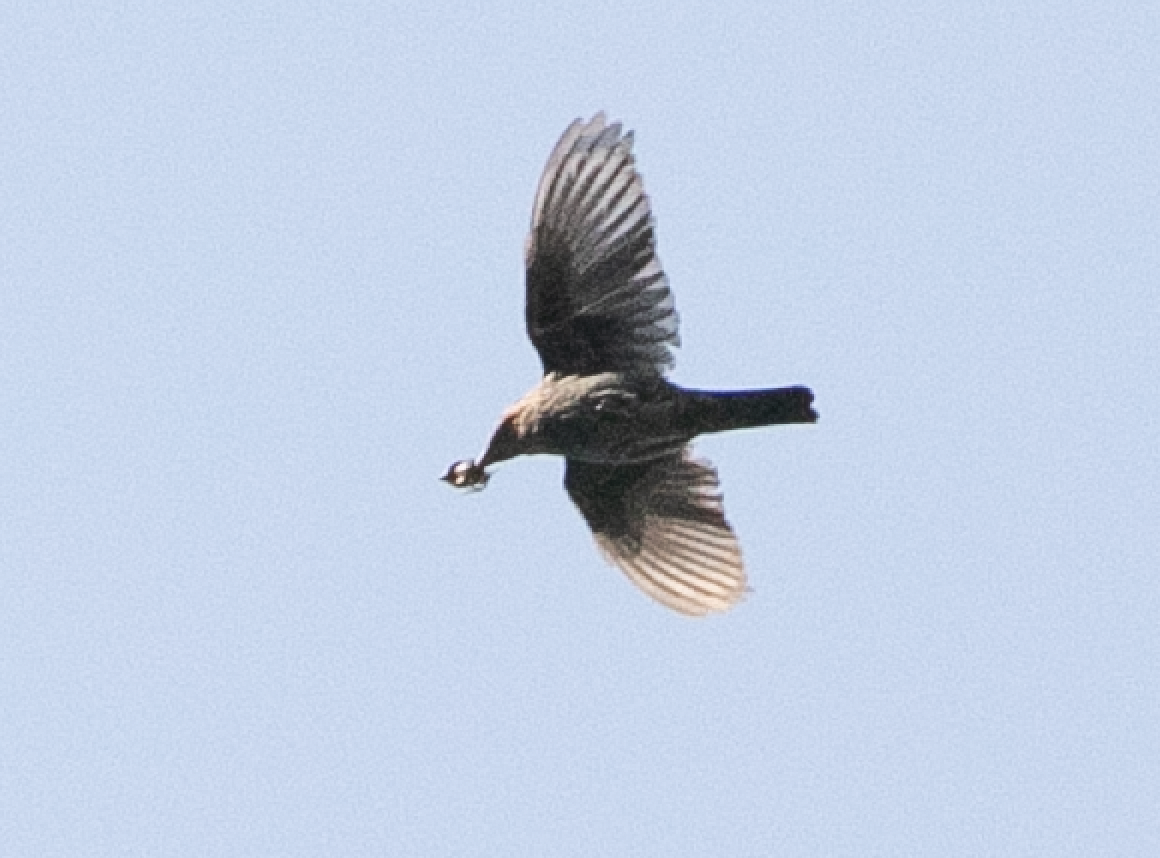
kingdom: Animalia
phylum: Chordata
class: Aves
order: Passeriformes
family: Muscicapidae
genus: Monticola
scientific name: Monticola solitarius
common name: Blue rock thrush
